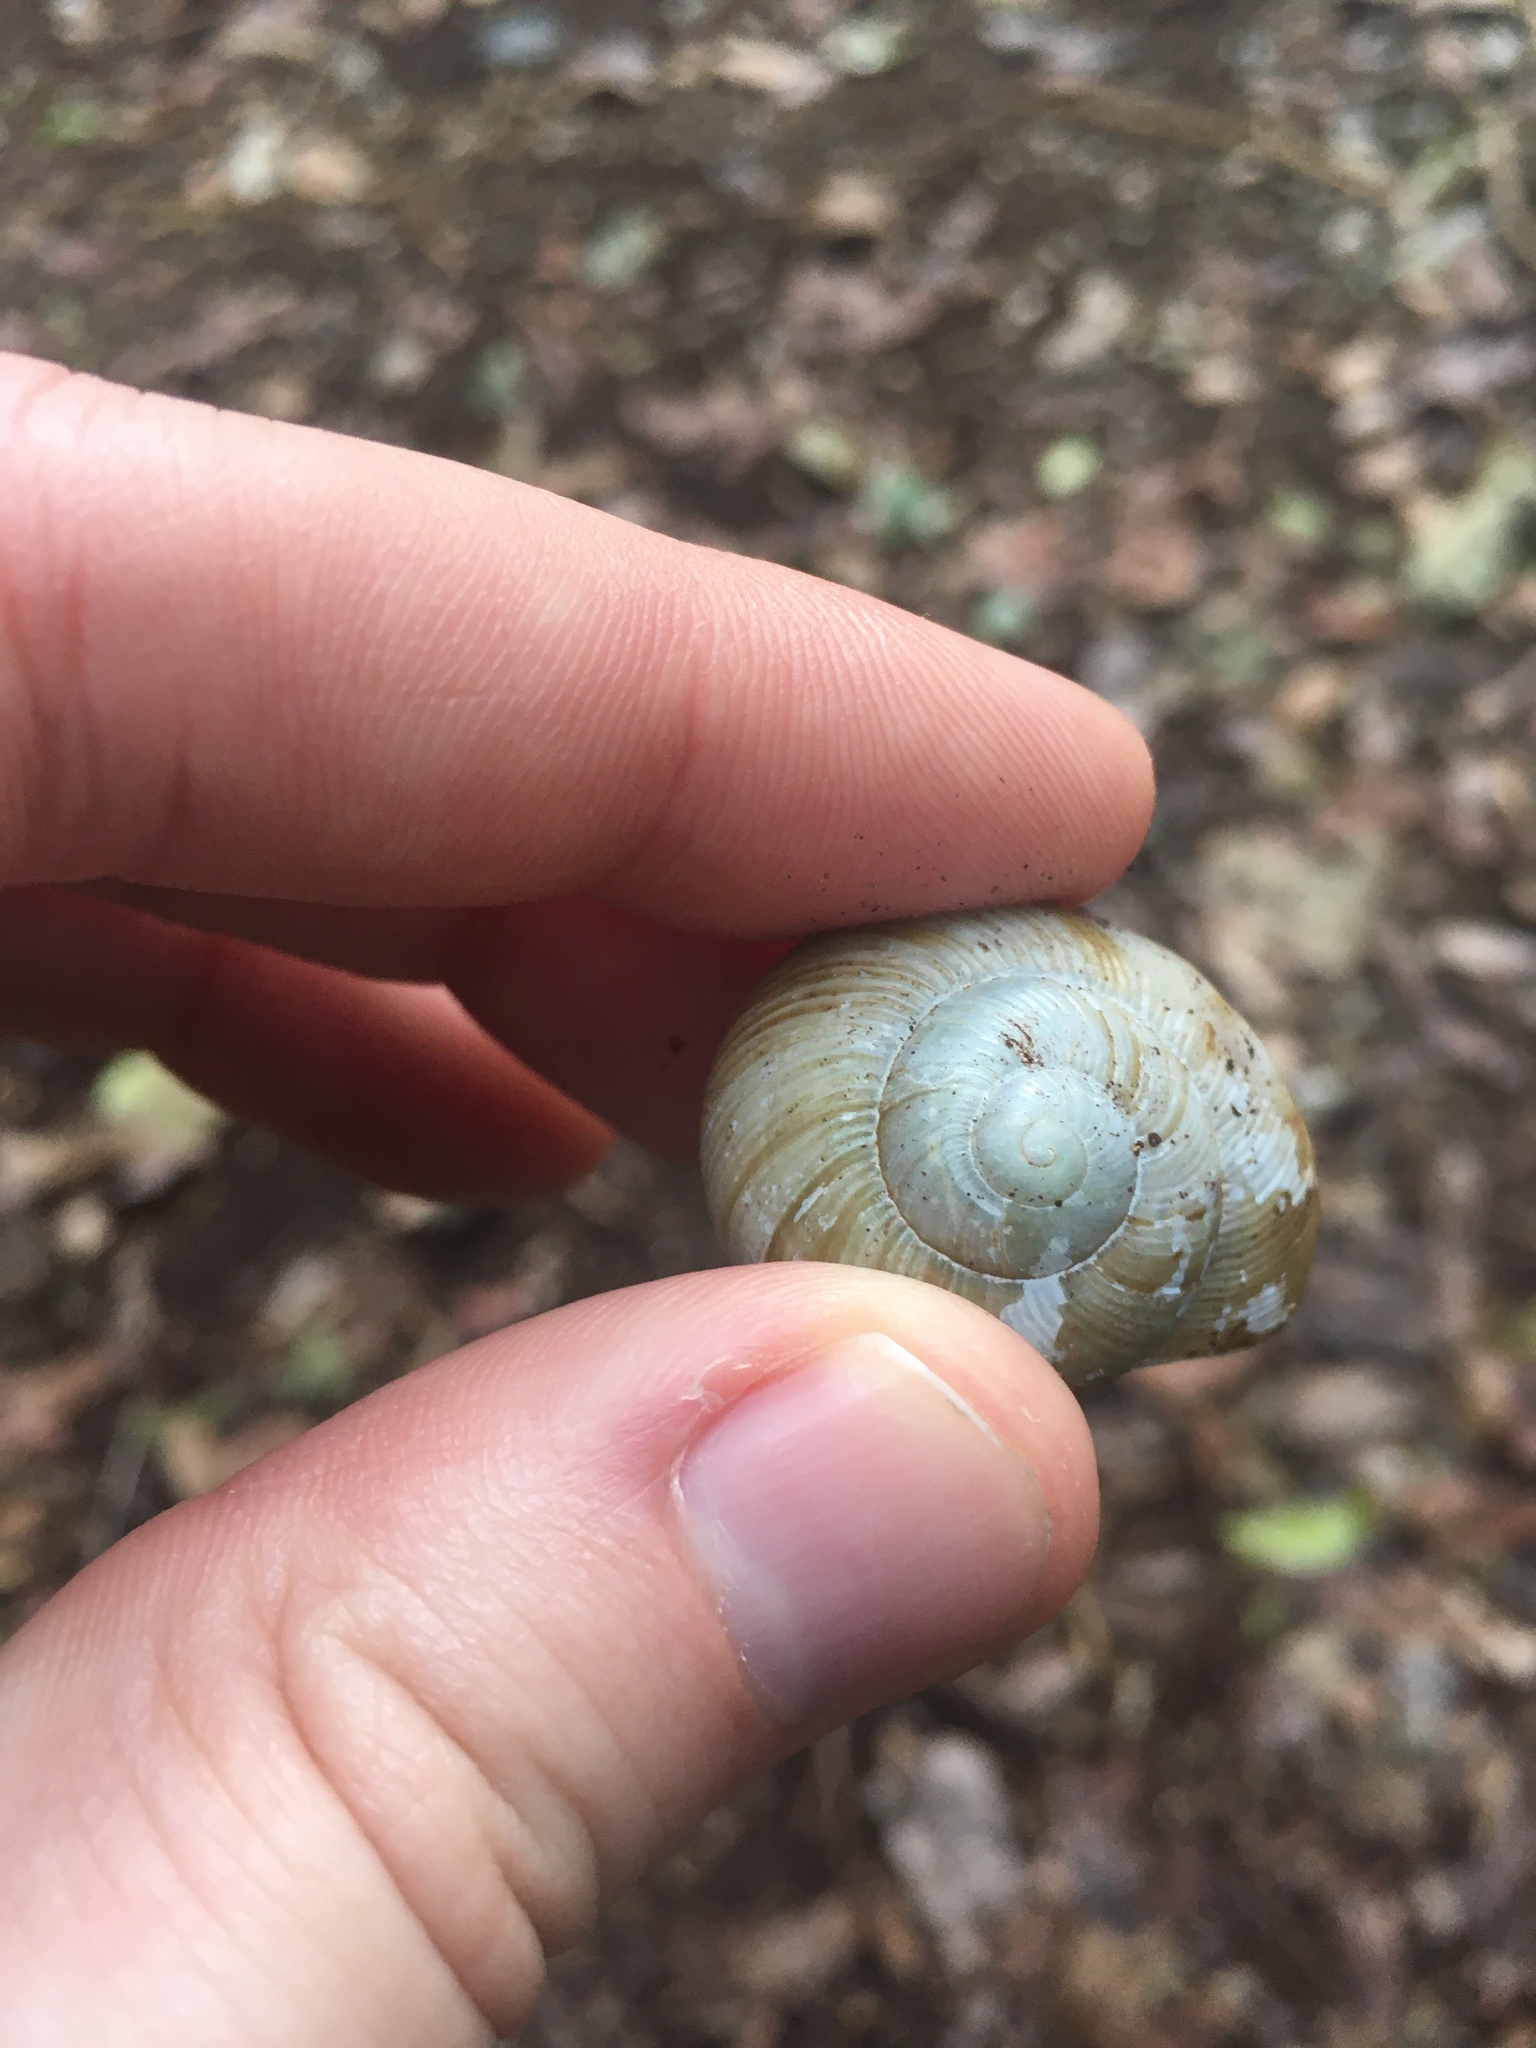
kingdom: Animalia
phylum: Mollusca
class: Gastropoda
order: Stylommatophora
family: Zachrysiidae
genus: Zachrysia
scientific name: Zachrysia provisoria
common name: Garden zachrysia
